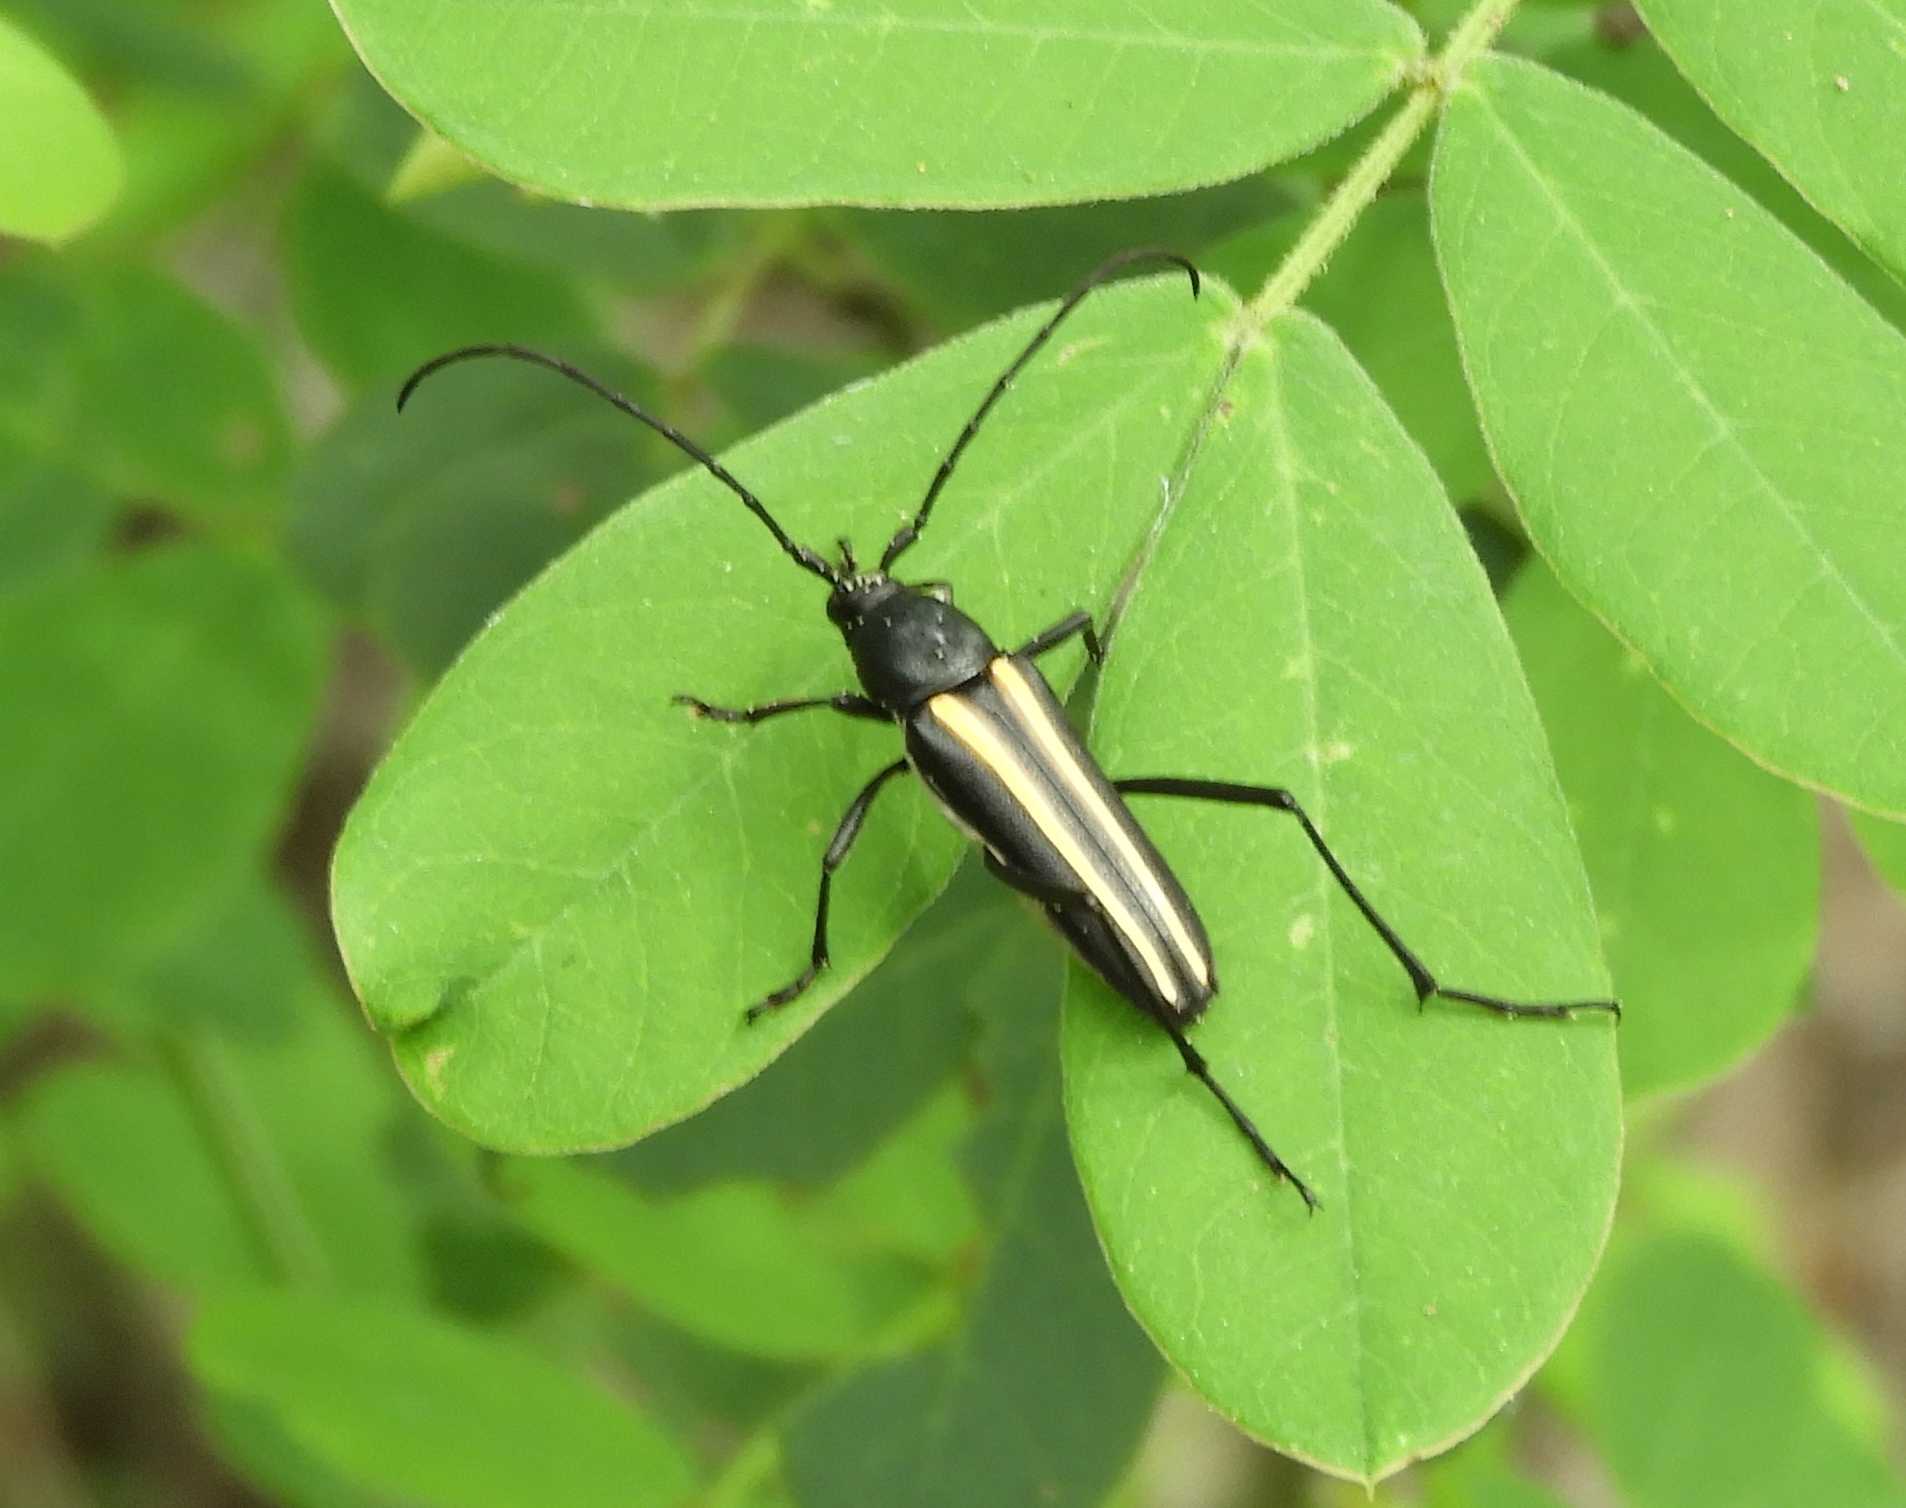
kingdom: Animalia
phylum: Arthropoda
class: Insecta
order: Coleoptera
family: Cerambycidae
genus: Lophalia
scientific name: Lophalia prolata
